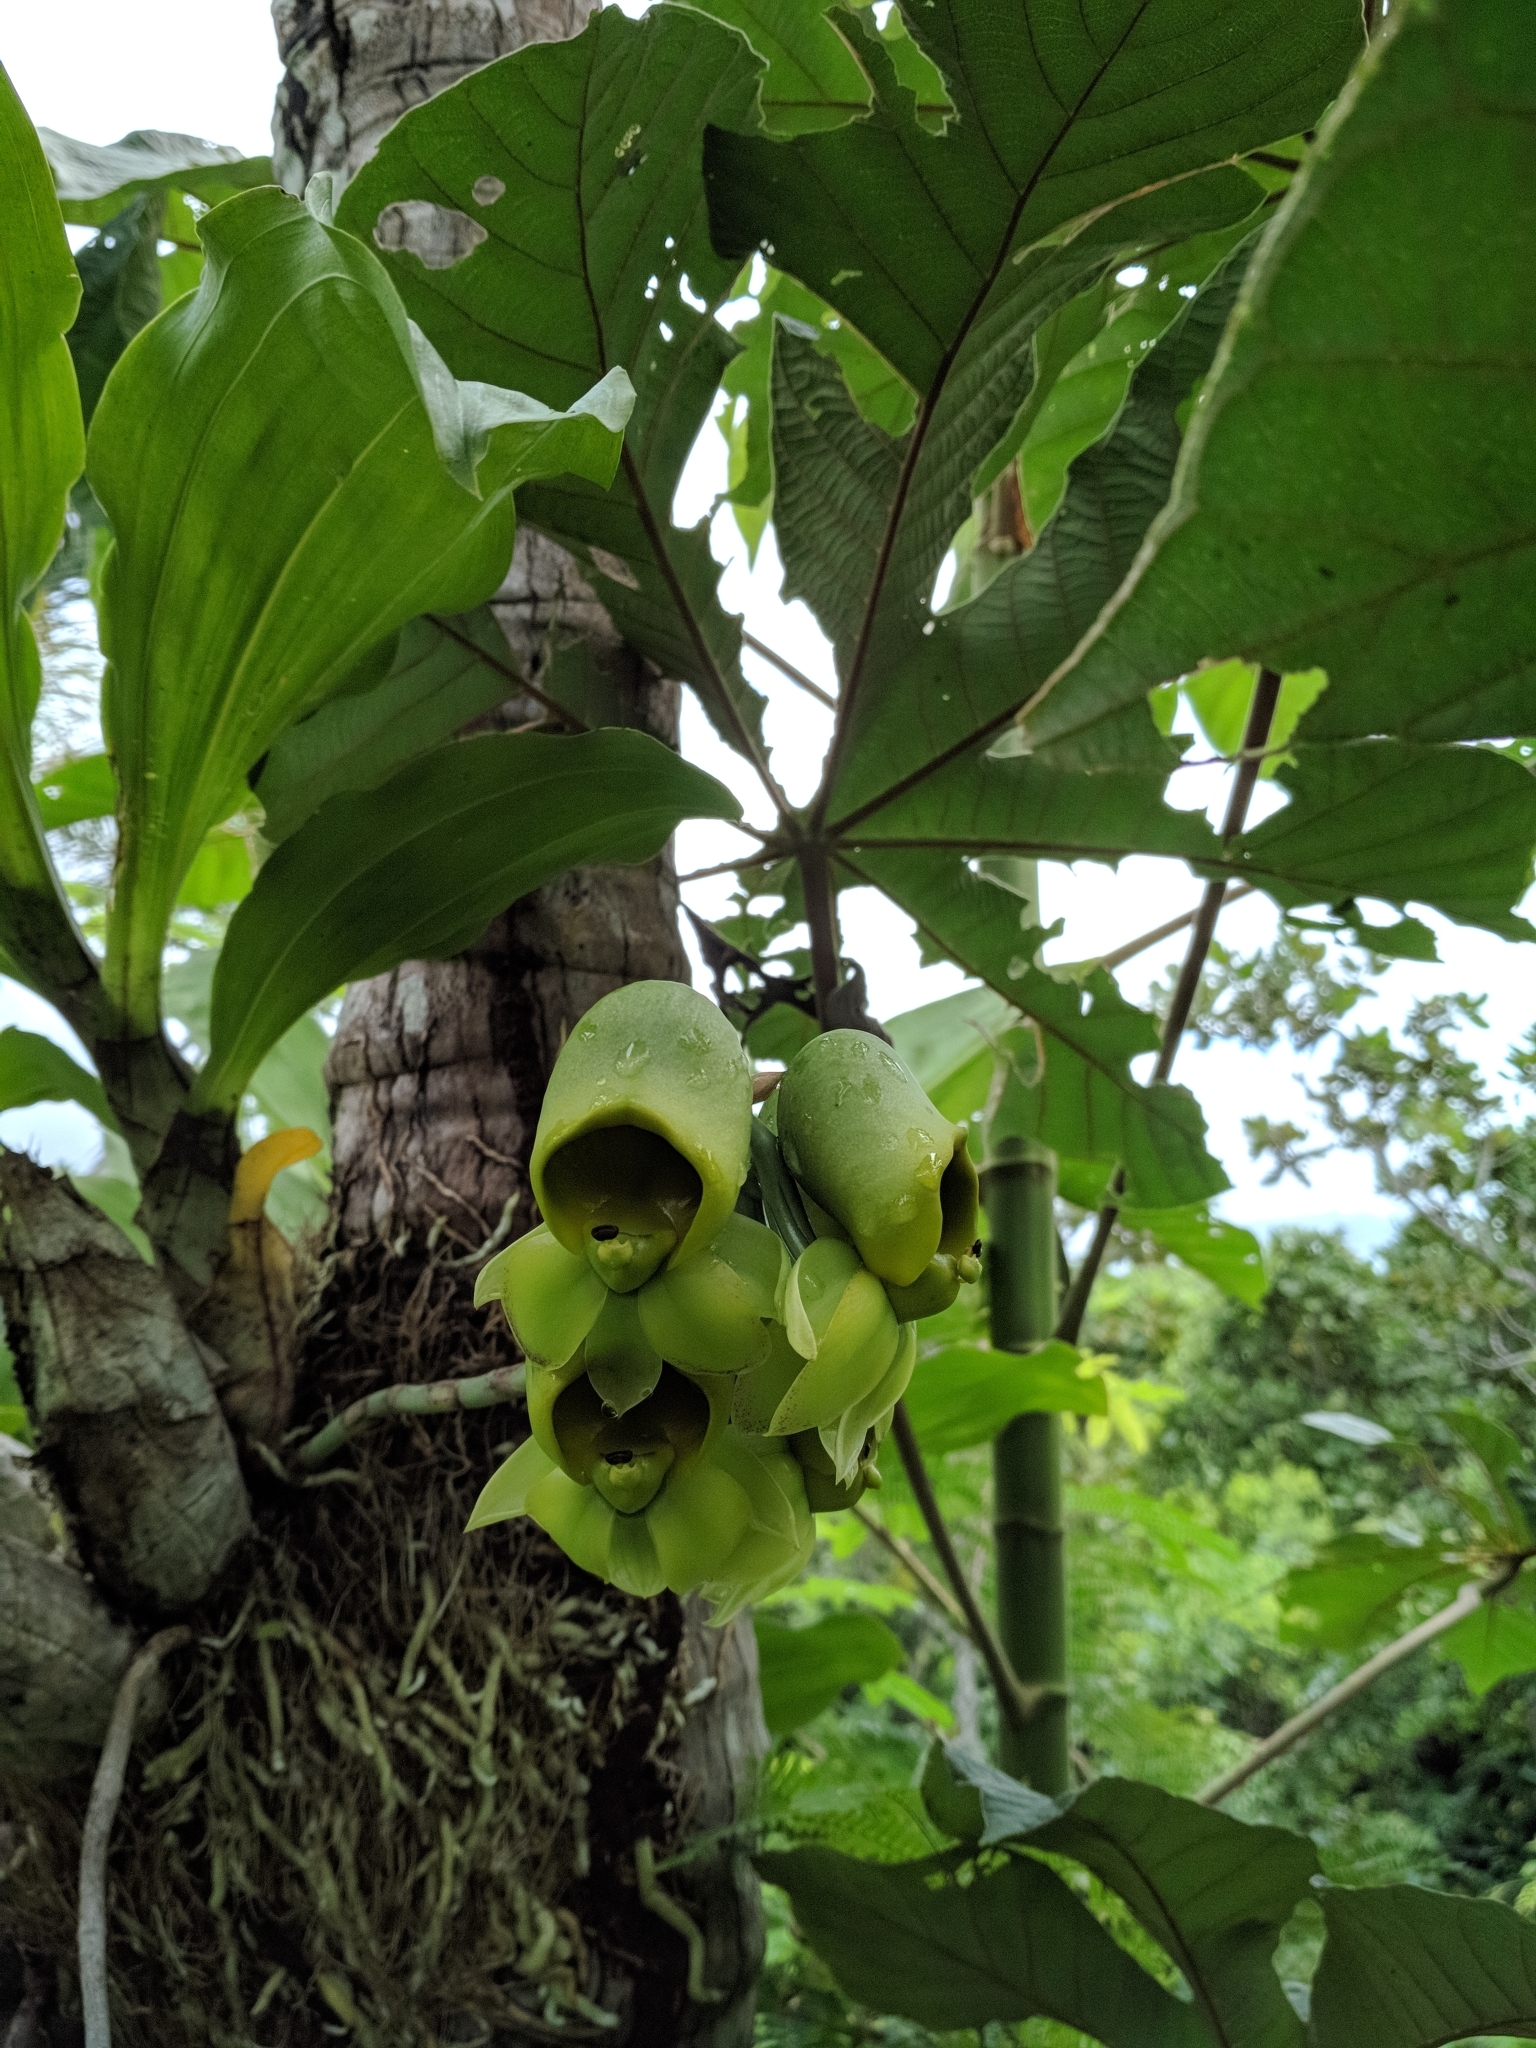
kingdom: Plantae
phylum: Tracheophyta
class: Liliopsida
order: Asparagales
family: Orchidaceae
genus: Catasetum
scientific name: Catasetum macrocarpum
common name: Jumping orchid
